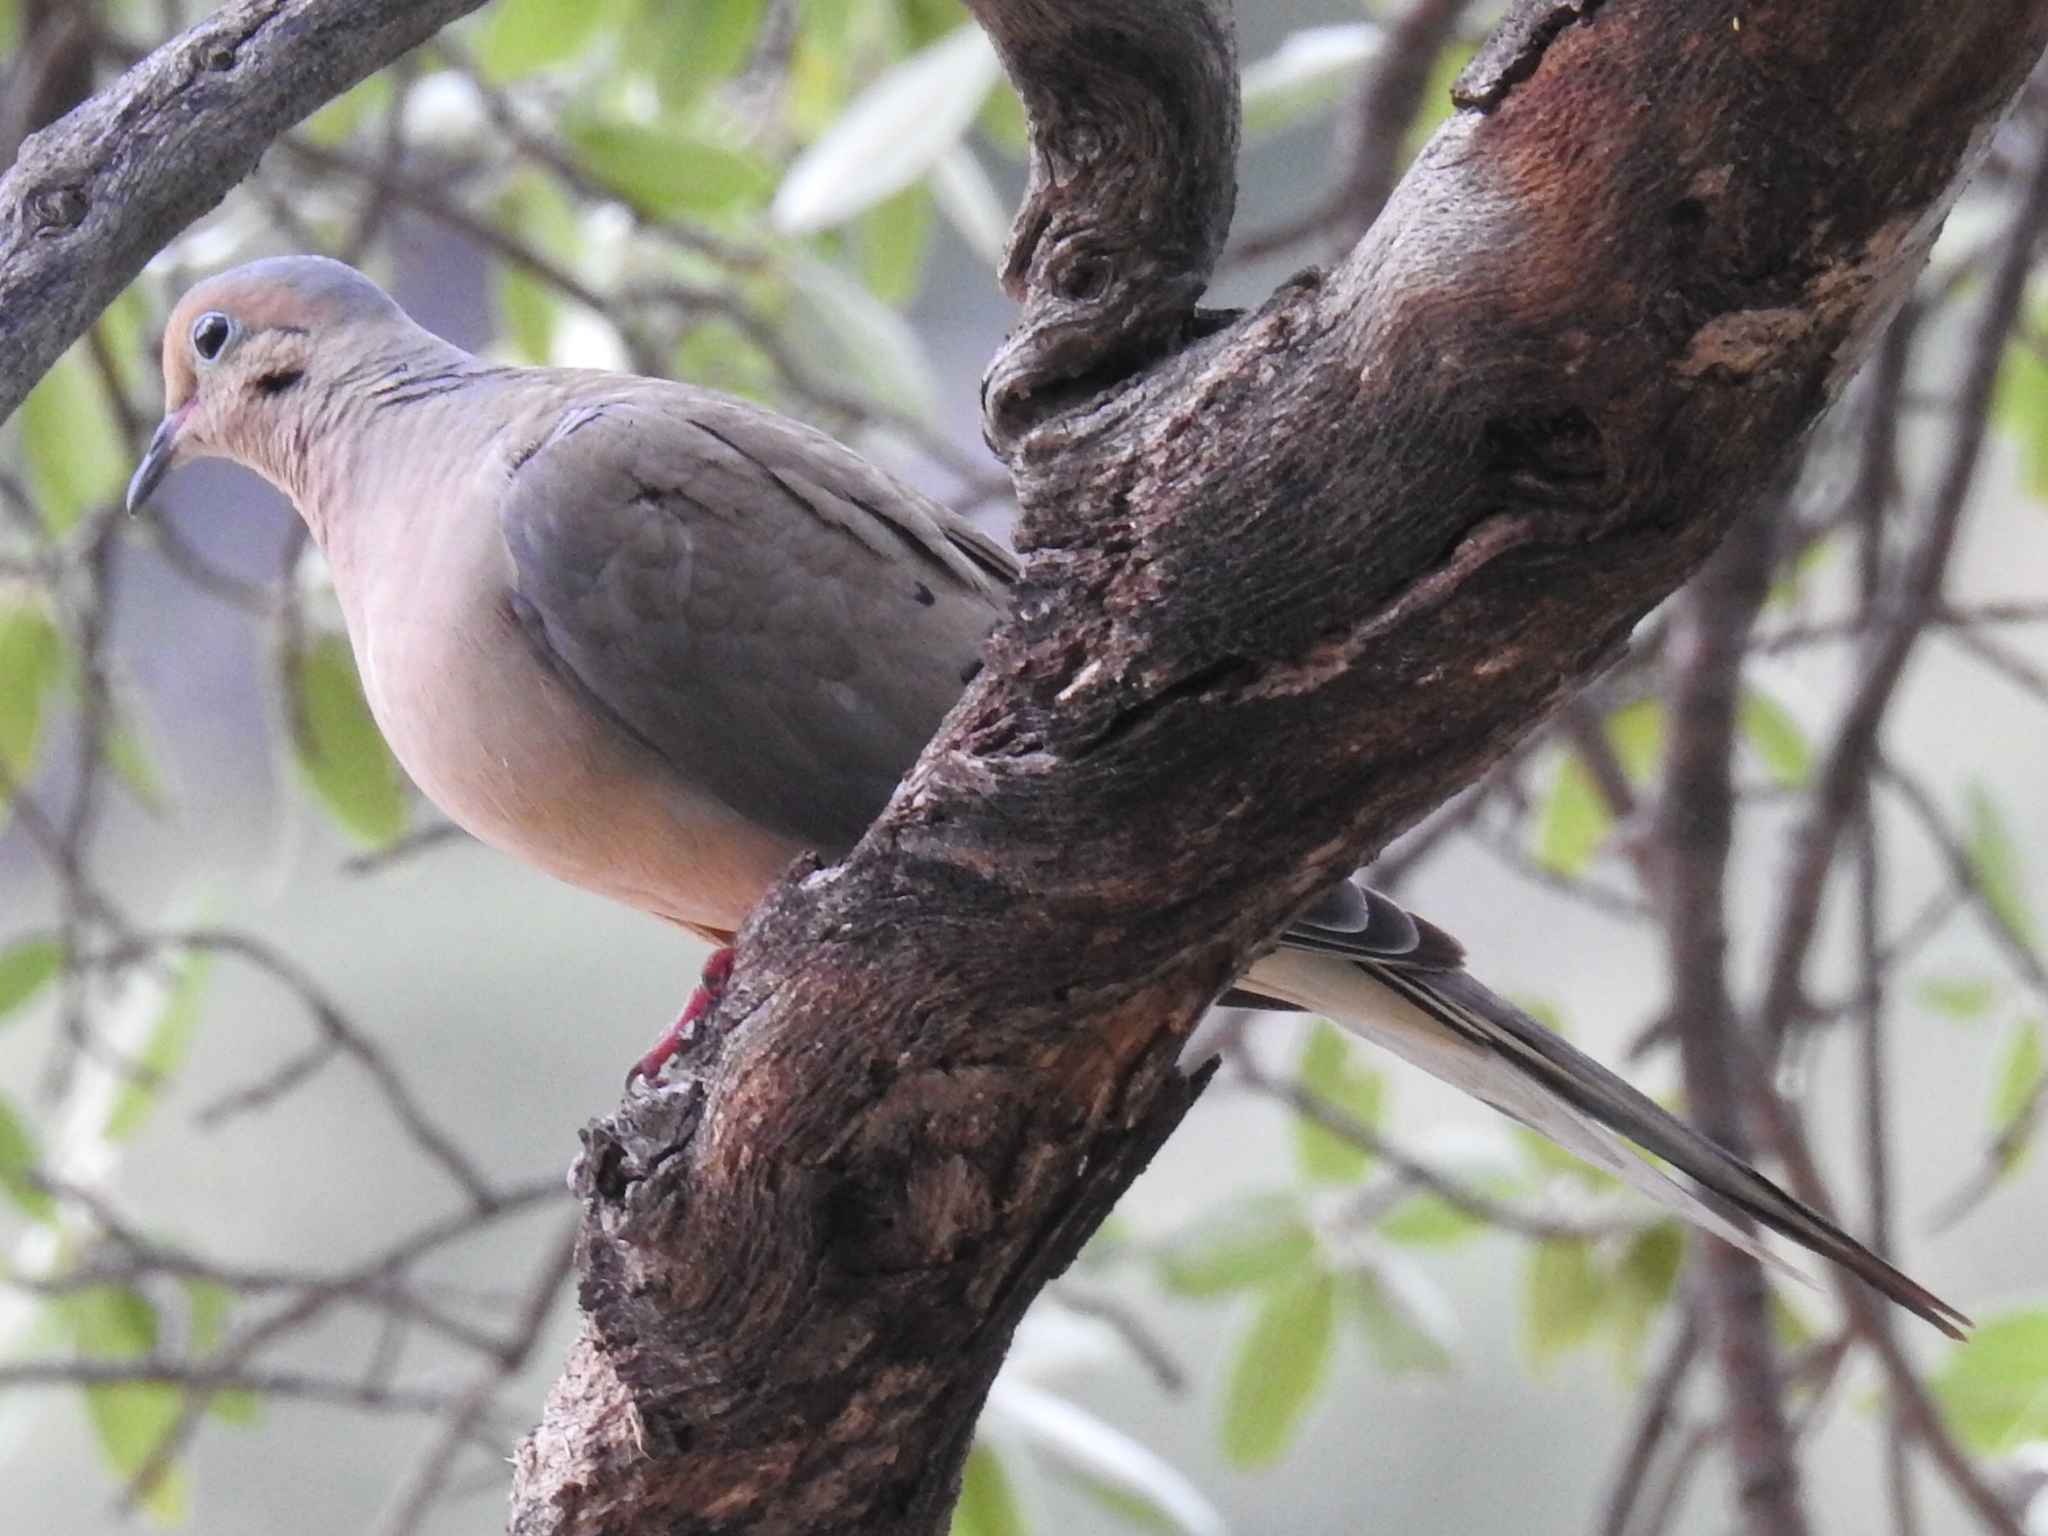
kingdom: Animalia
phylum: Chordata
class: Aves
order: Columbiformes
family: Columbidae
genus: Zenaida
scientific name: Zenaida macroura
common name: Mourning dove
